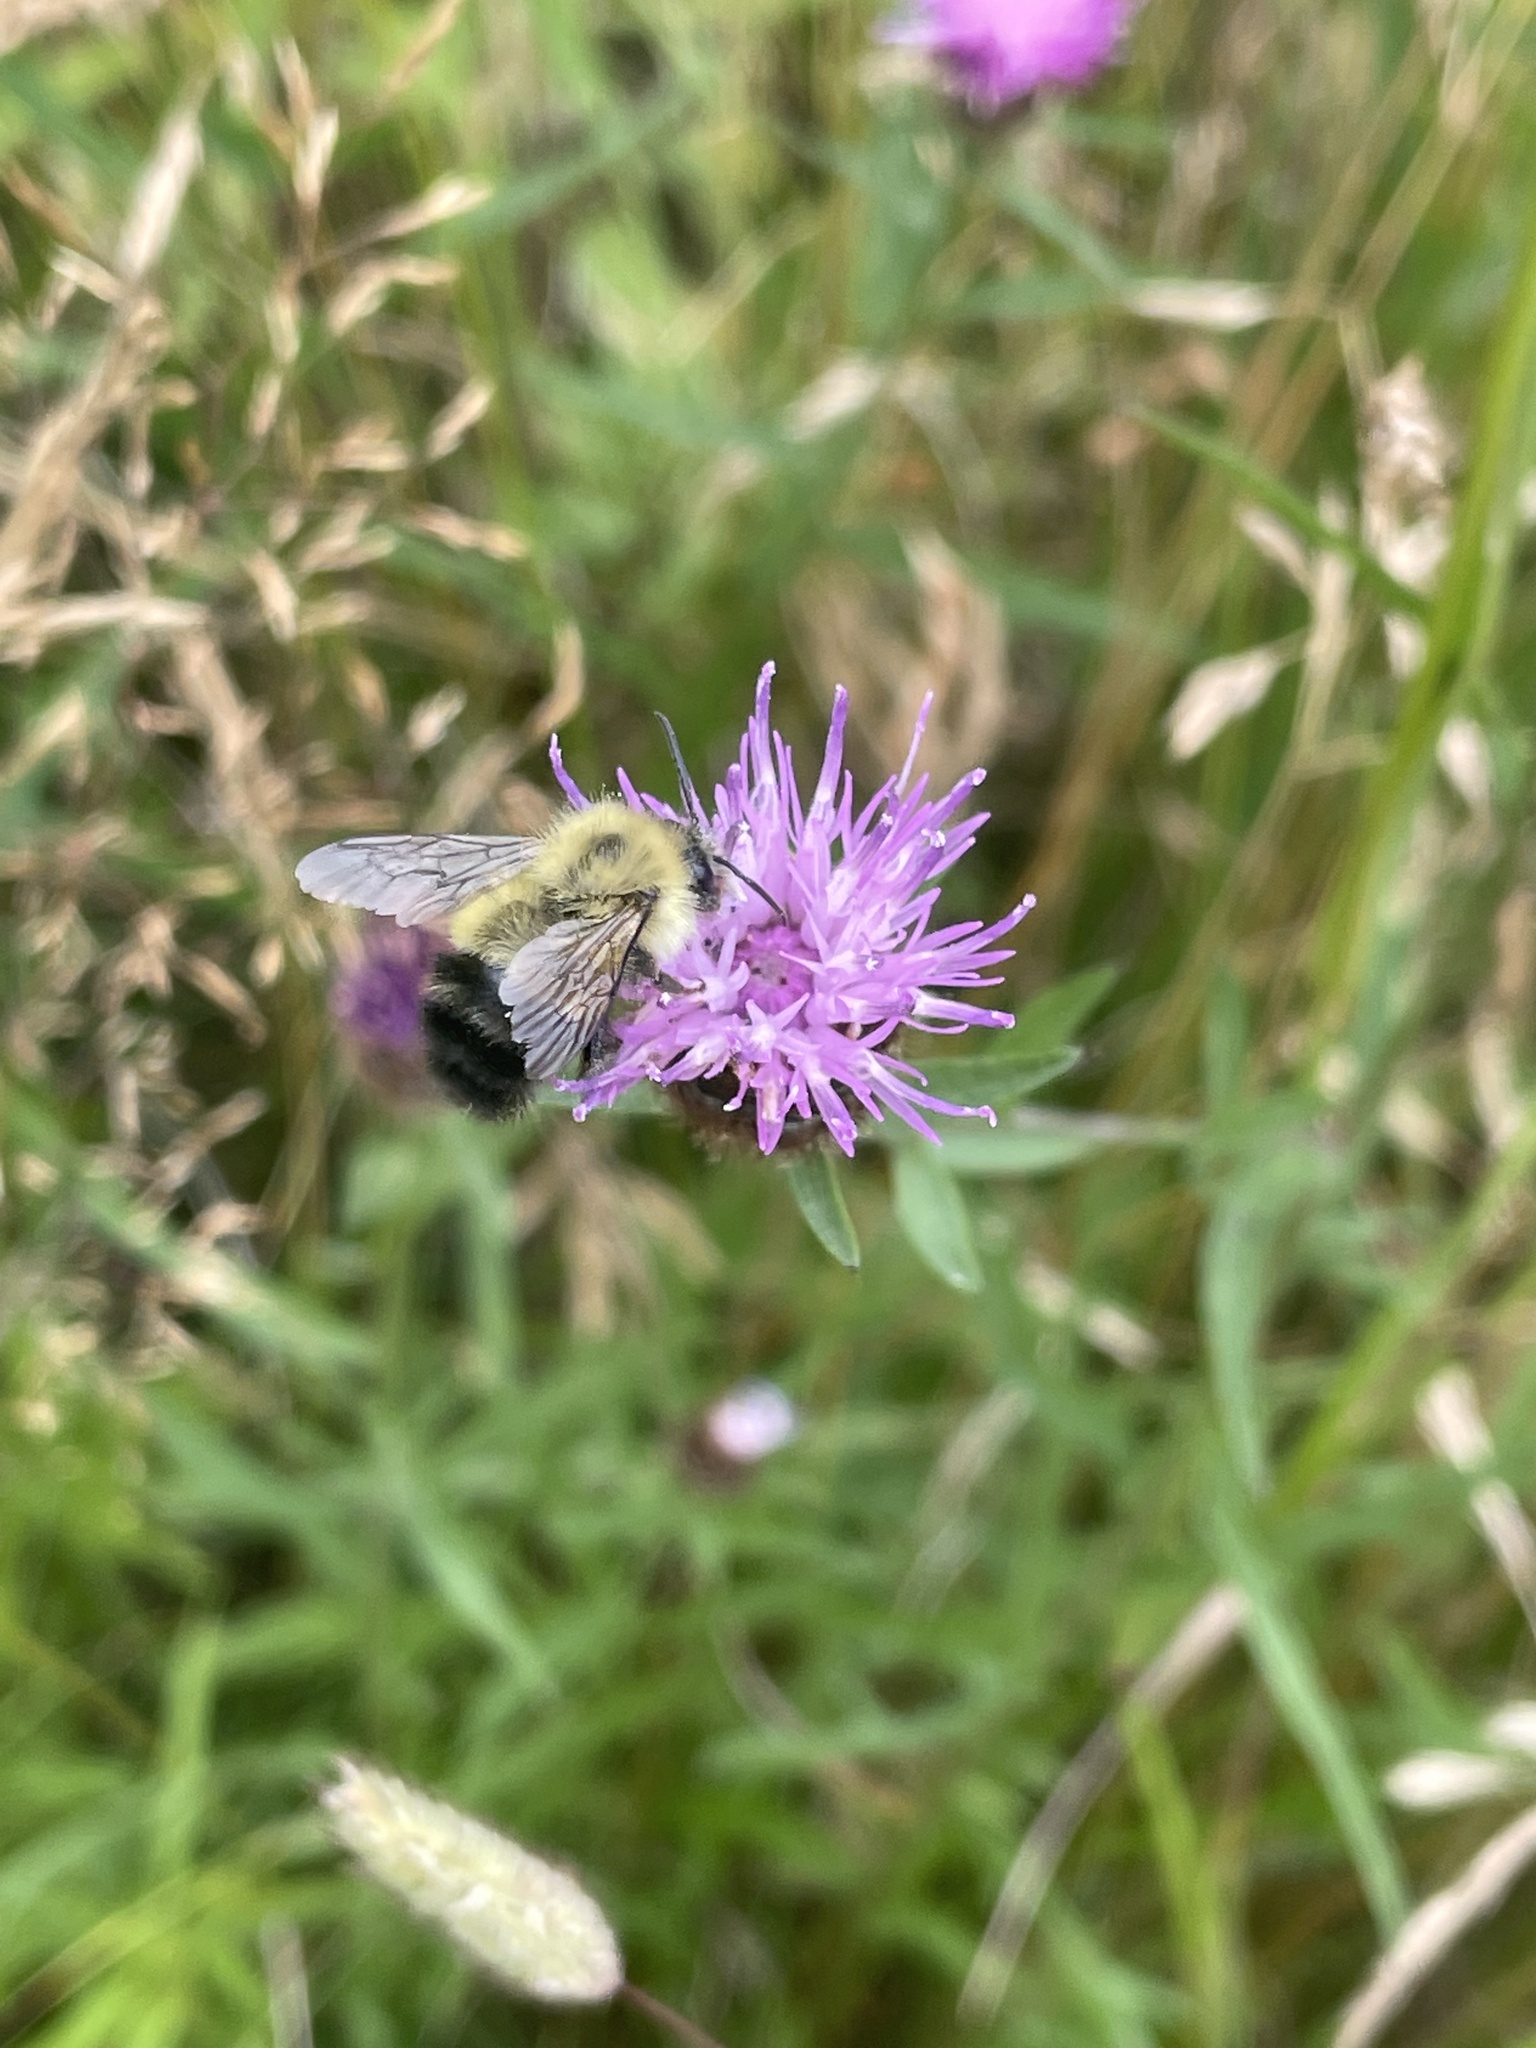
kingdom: Animalia
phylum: Arthropoda
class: Insecta
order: Hymenoptera
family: Apidae
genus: Pyrobombus
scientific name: Pyrobombus
